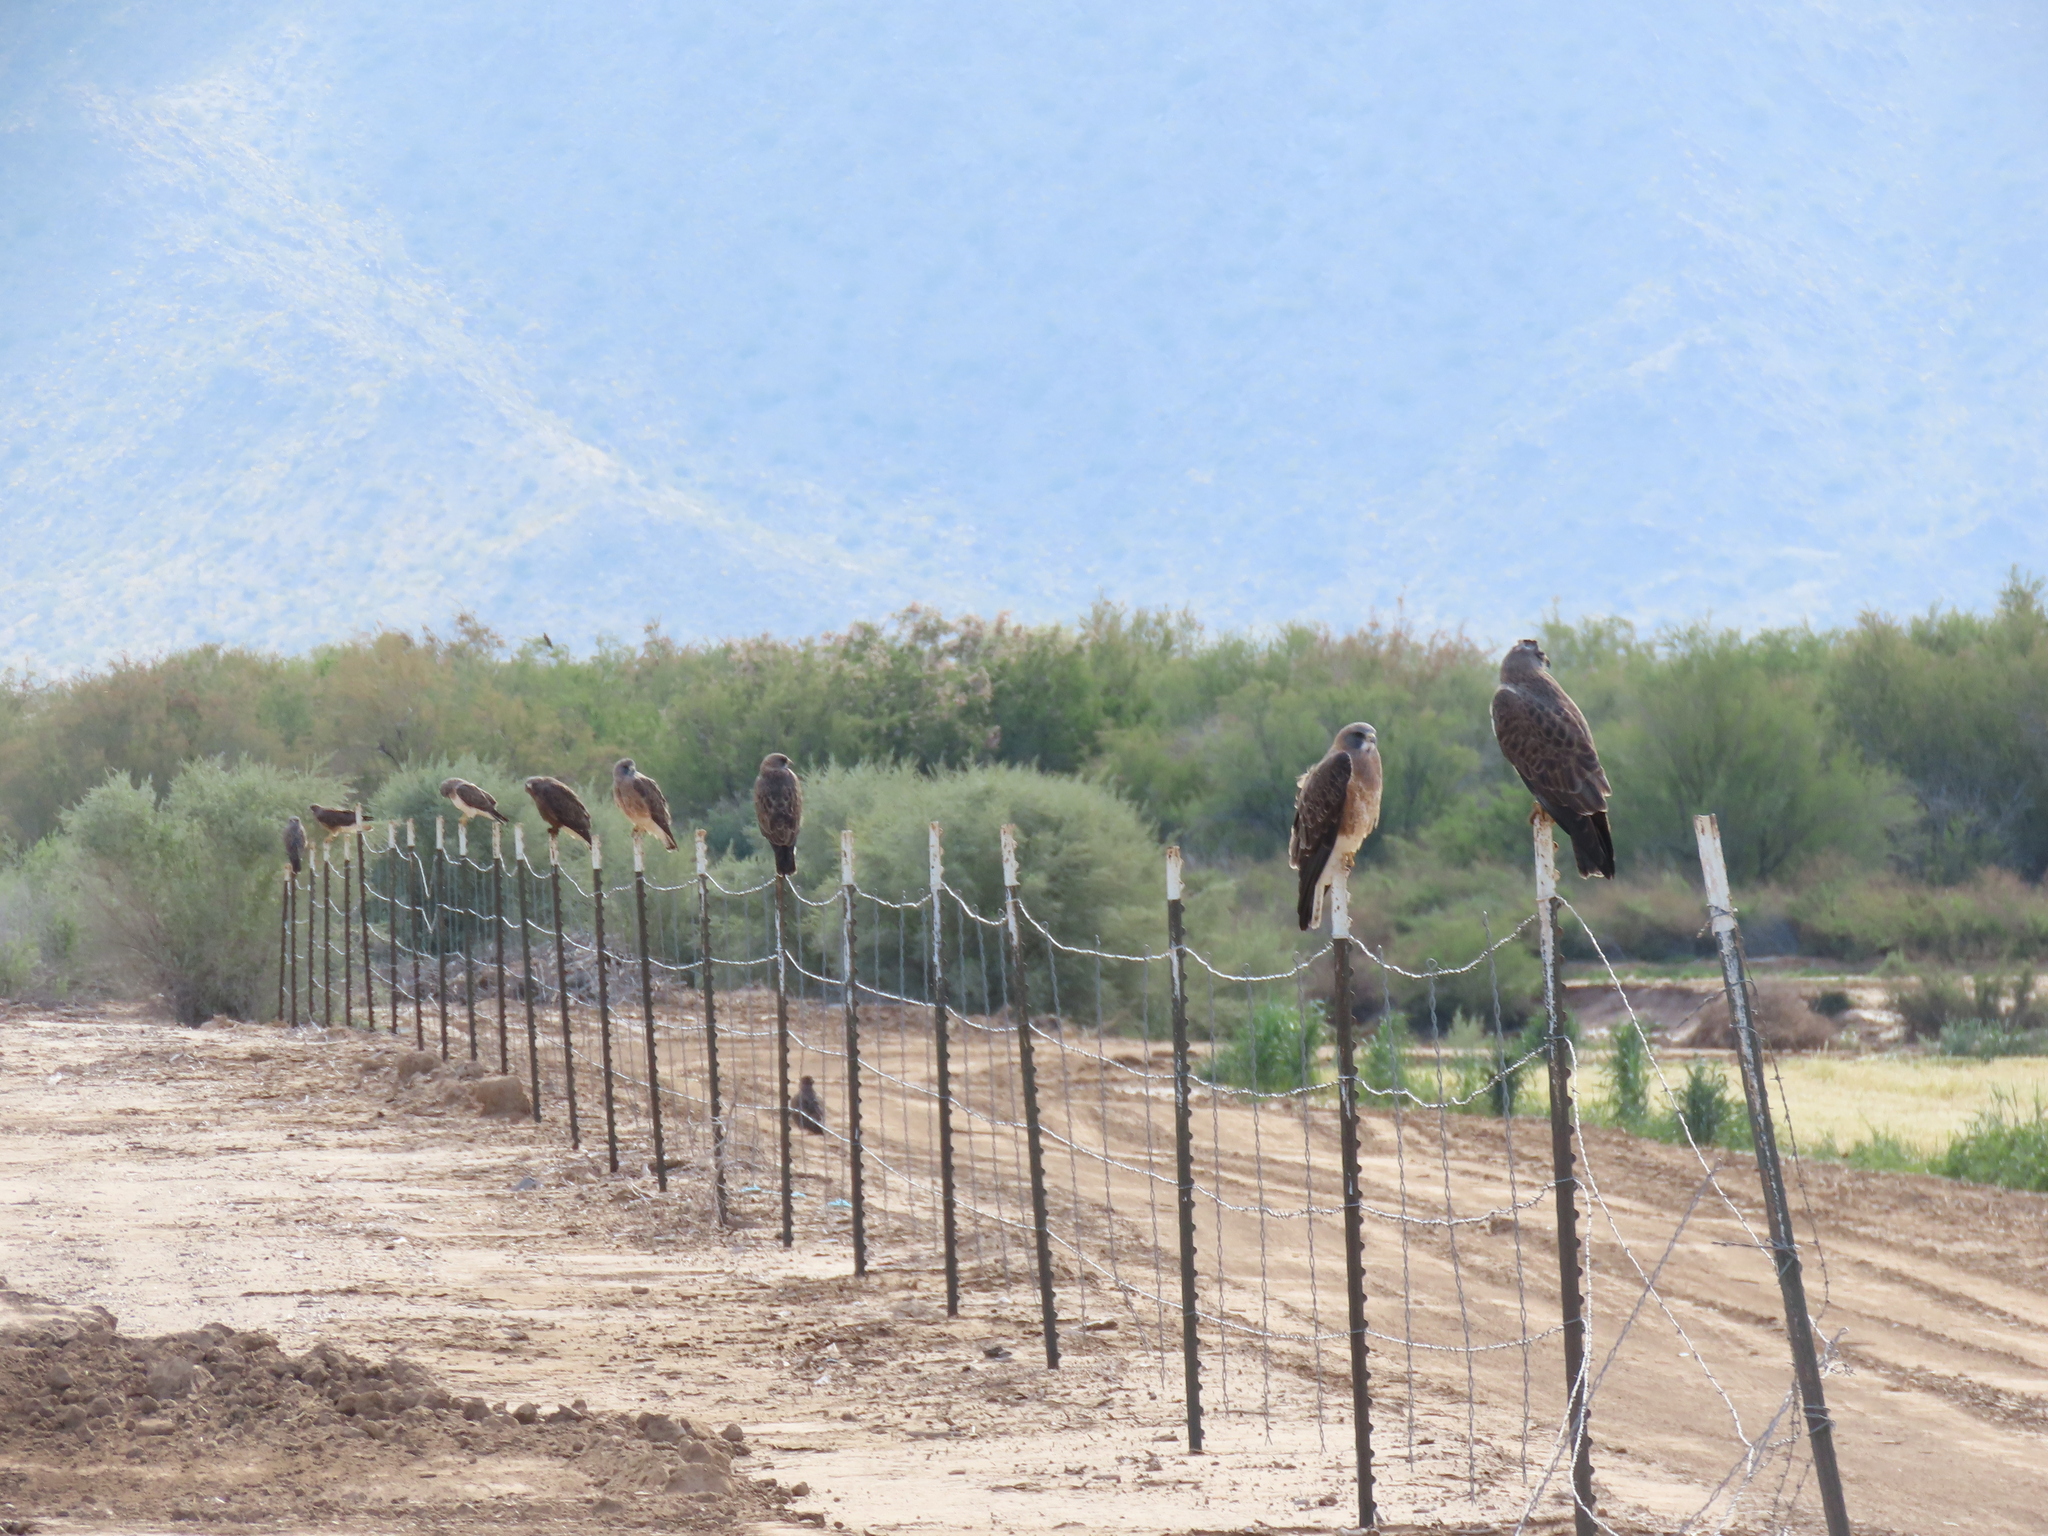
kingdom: Animalia
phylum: Chordata
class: Aves
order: Accipitriformes
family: Accipitridae
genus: Buteo
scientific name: Buteo swainsoni
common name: Swainson's hawk
